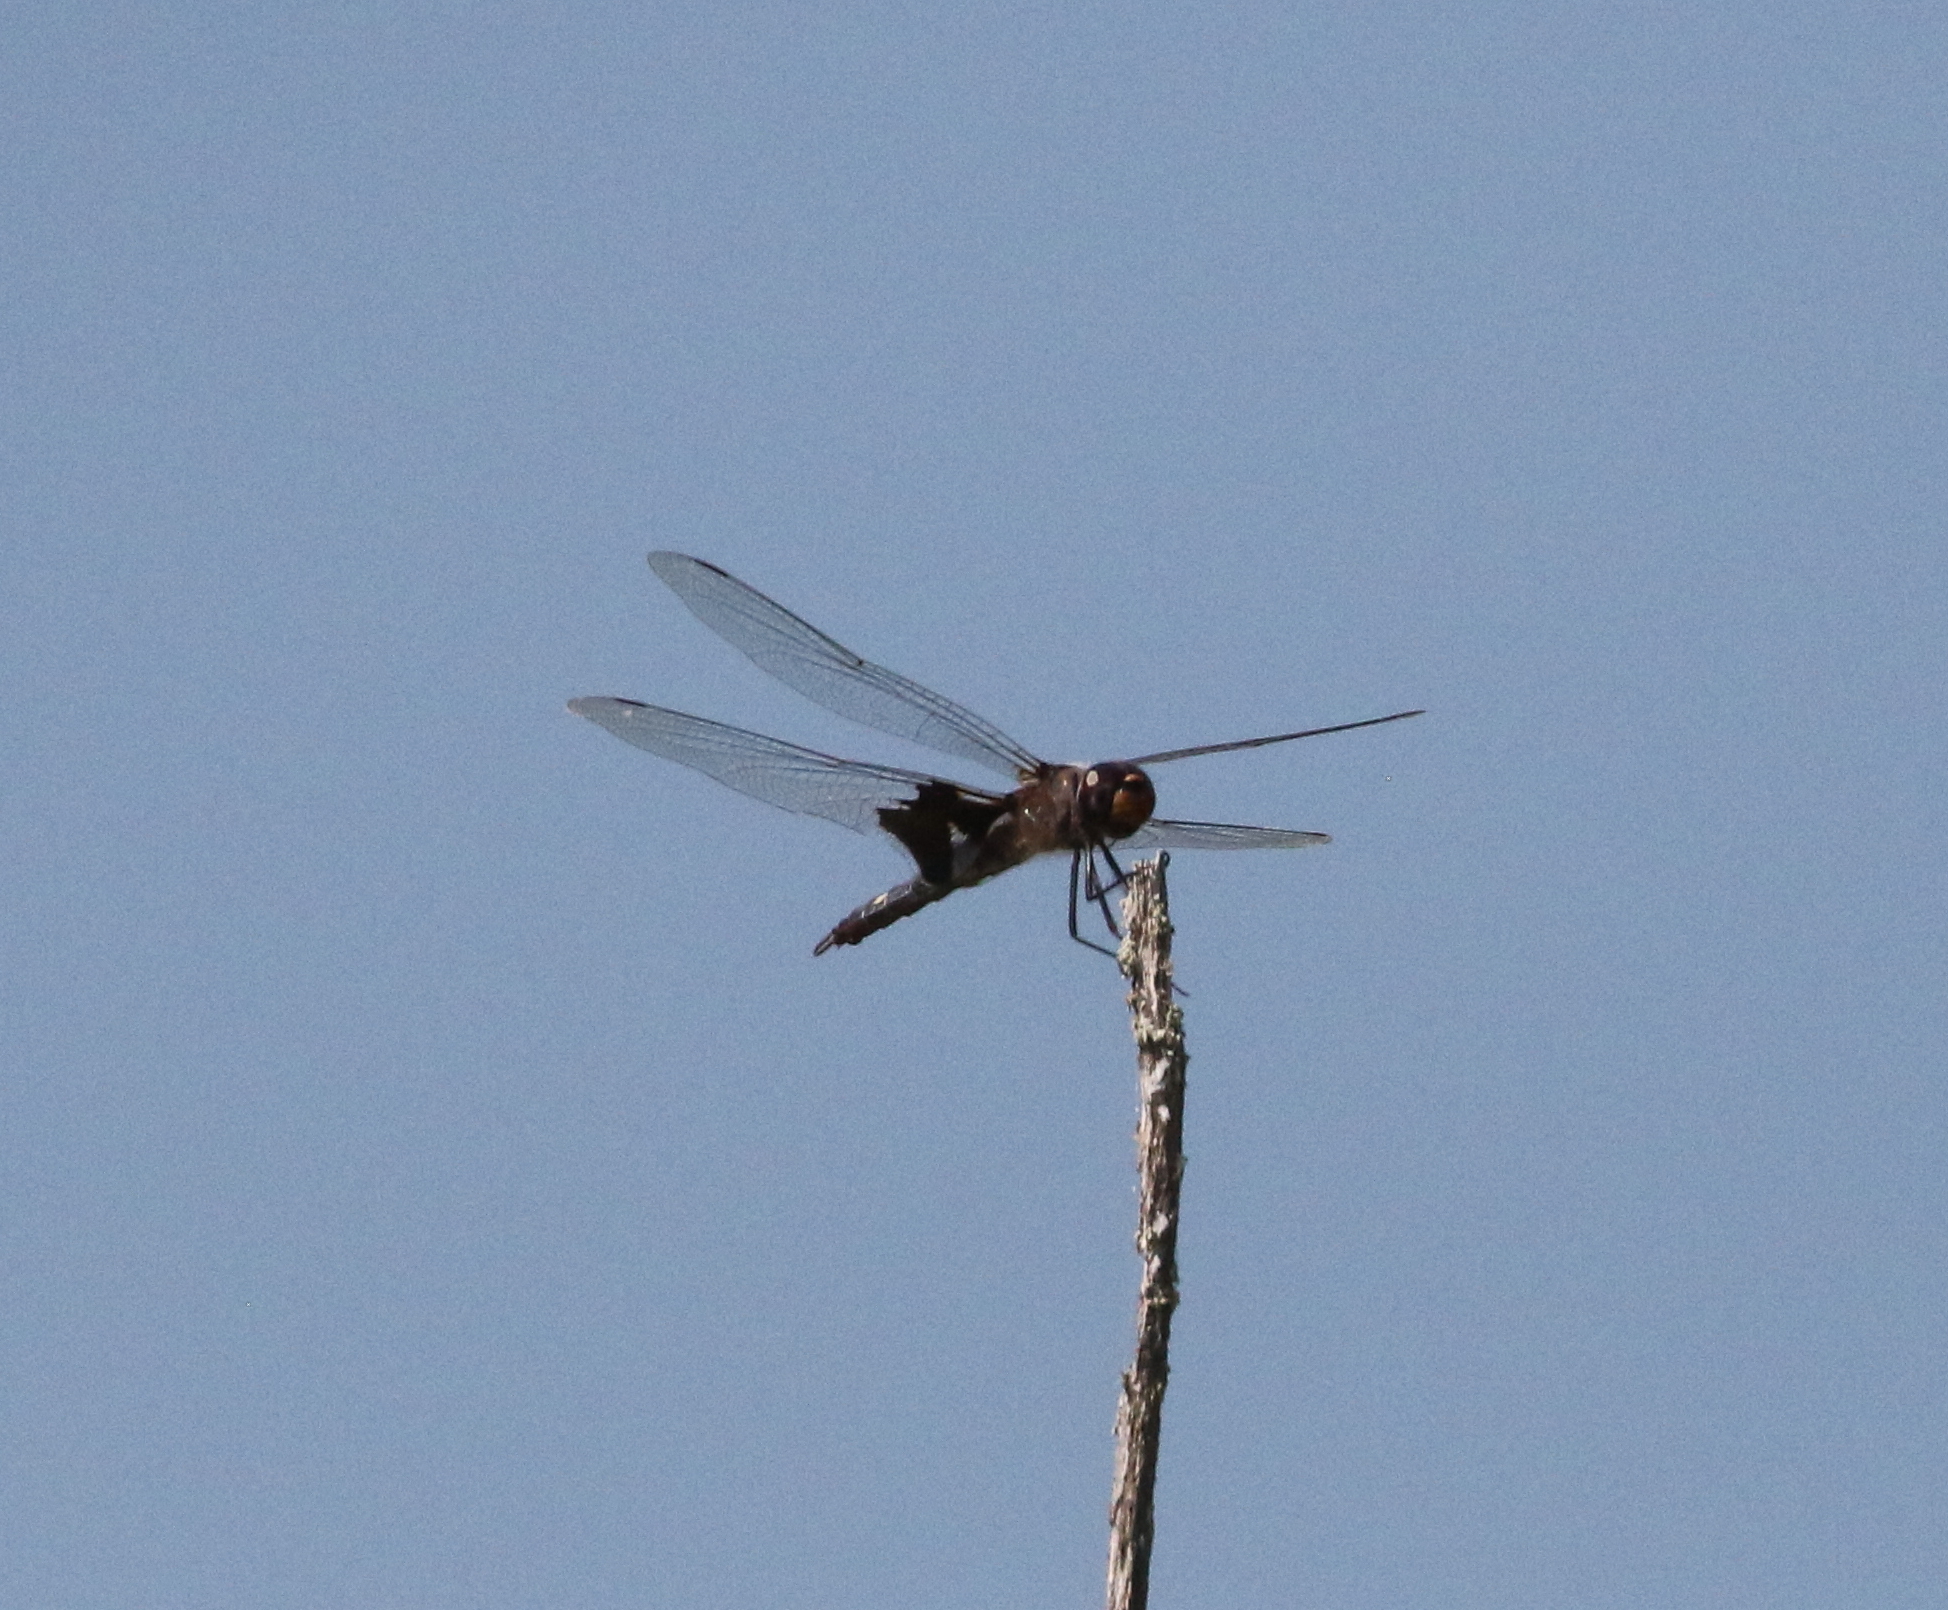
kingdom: Animalia
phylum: Arthropoda
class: Insecta
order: Odonata
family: Libellulidae
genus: Tramea
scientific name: Tramea lacerata
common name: Black saddlebags
